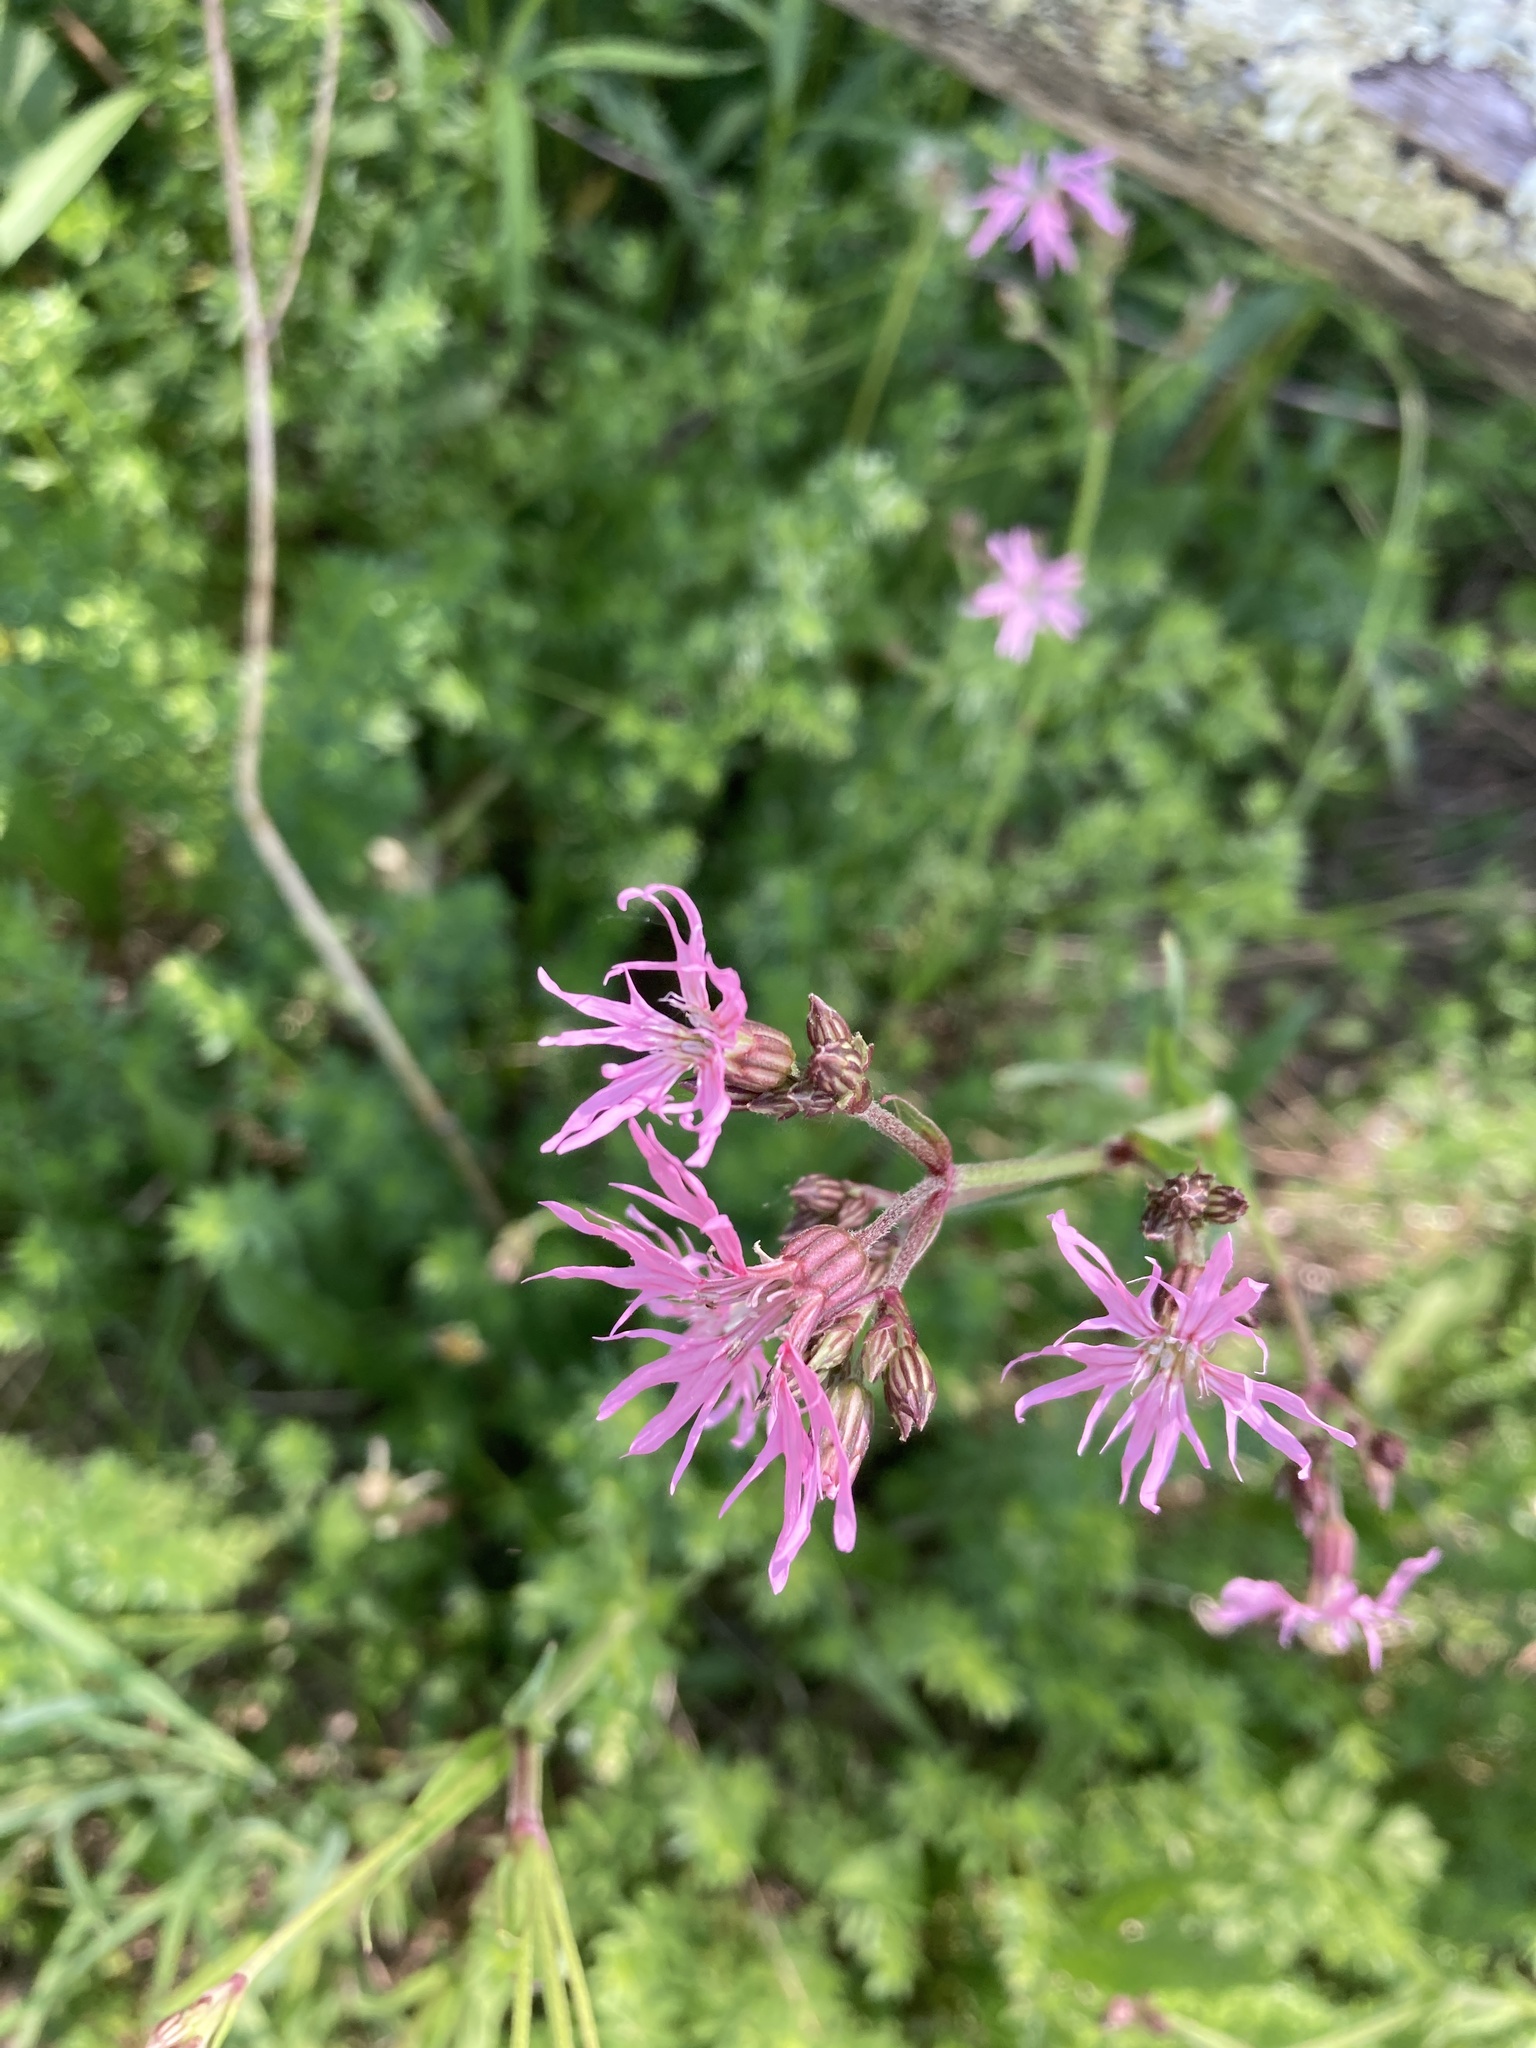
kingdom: Plantae
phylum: Tracheophyta
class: Magnoliopsida
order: Caryophyllales
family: Caryophyllaceae
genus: Silene
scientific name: Silene flos-cuculi
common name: Ragged-robin
